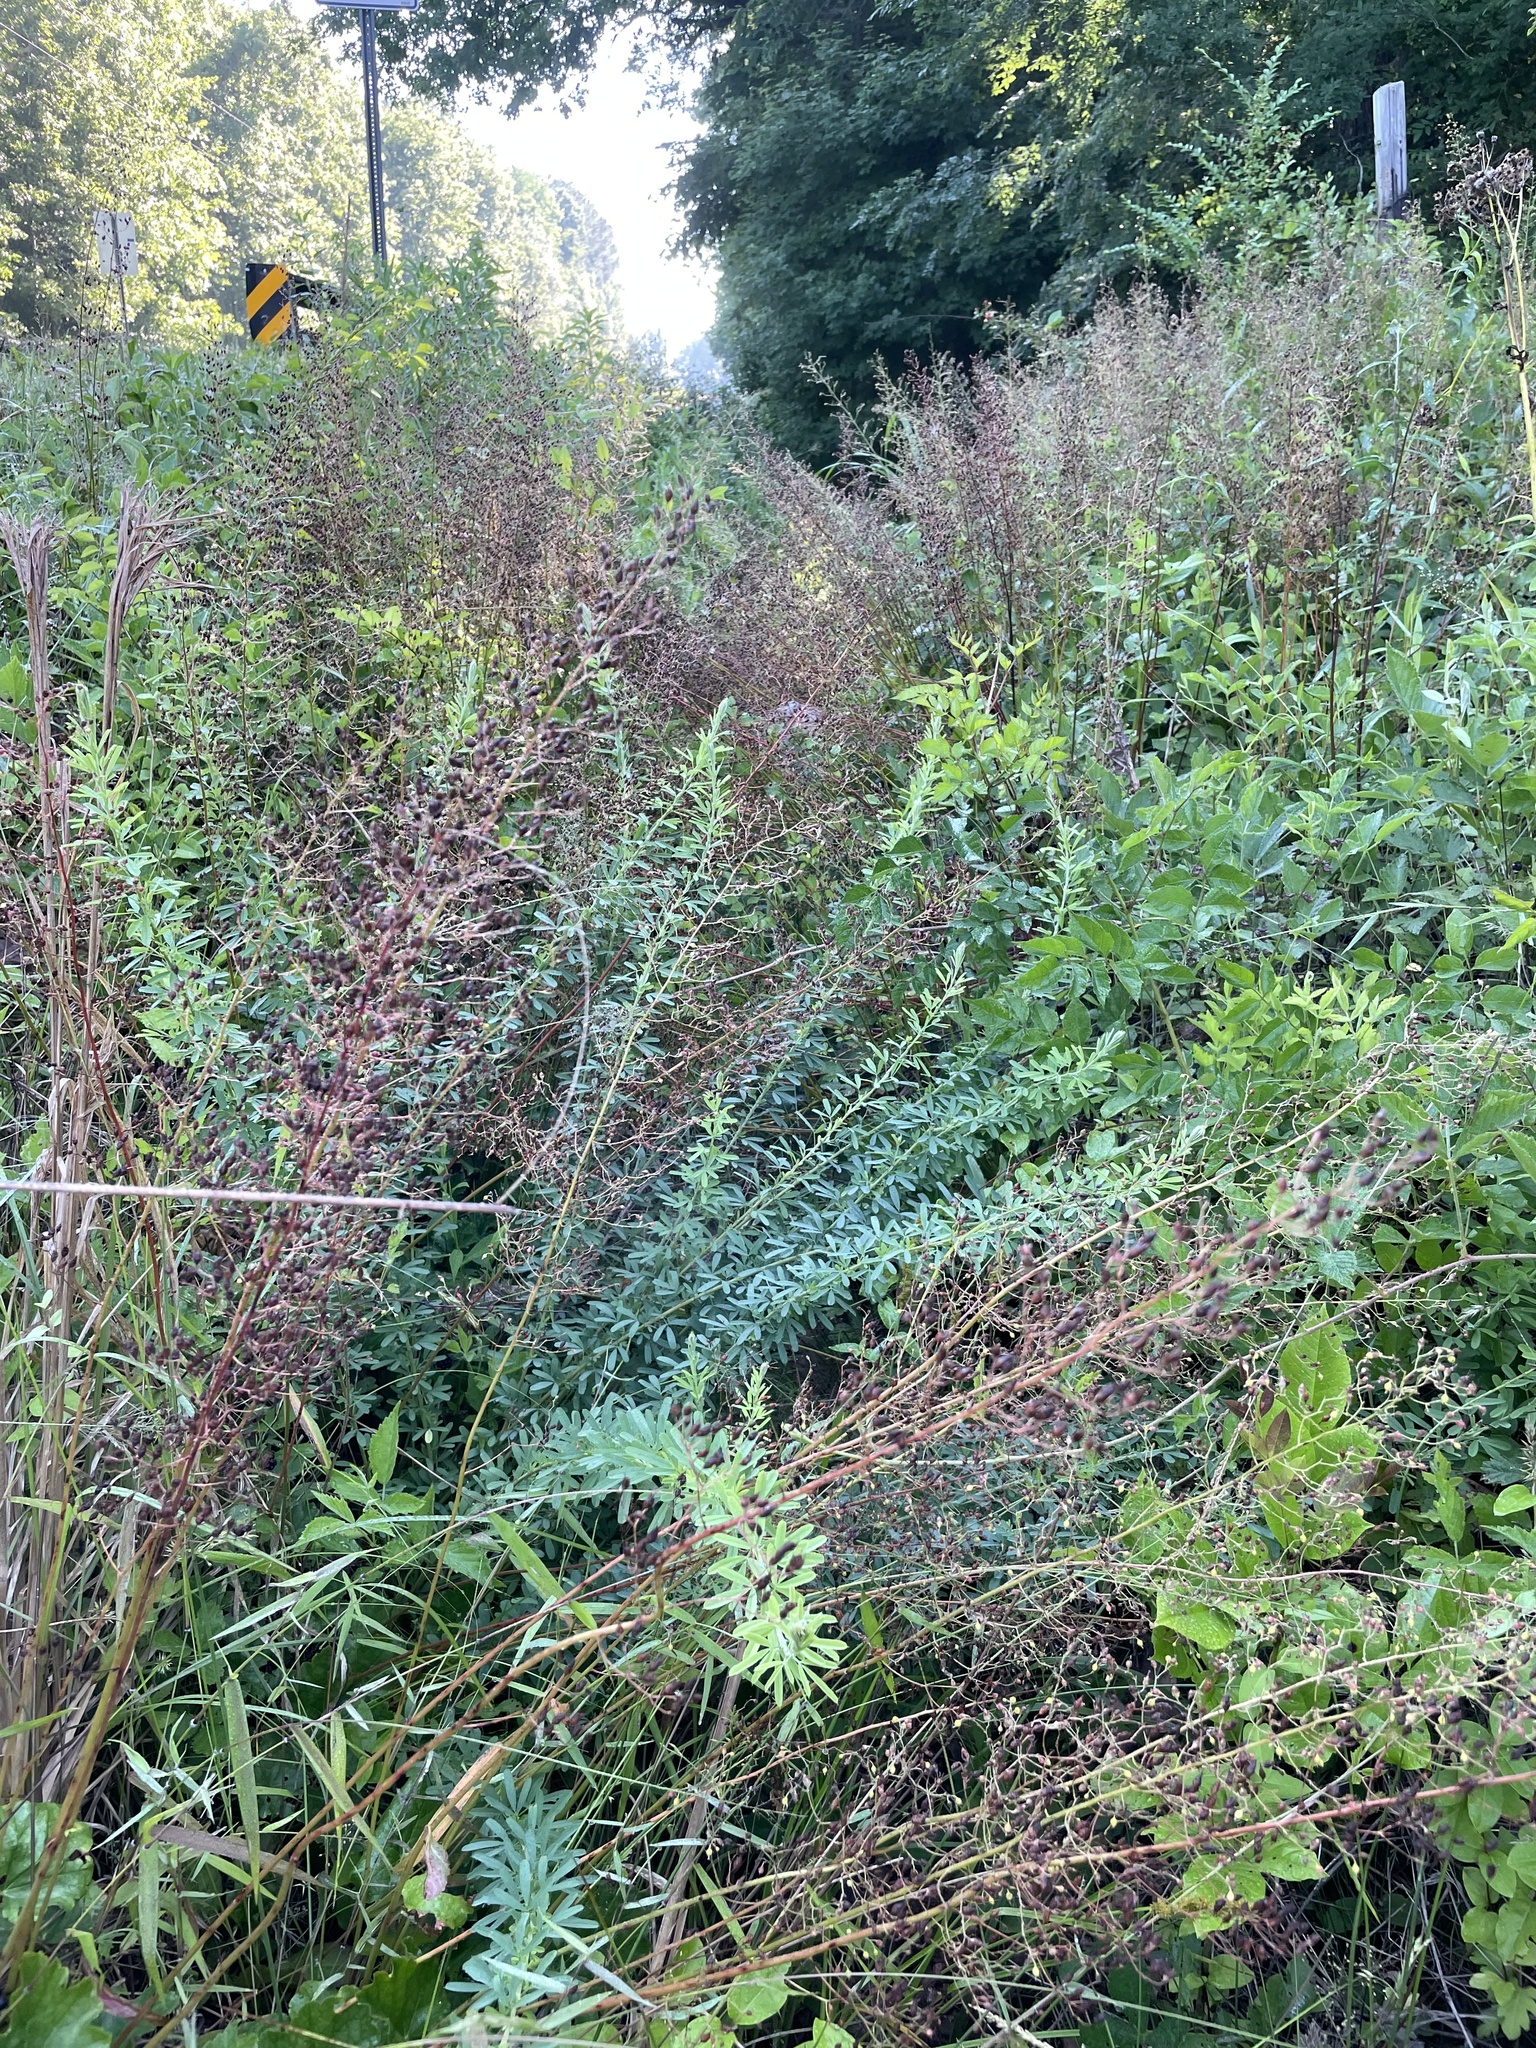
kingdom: Plantae
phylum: Tracheophyta
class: Magnoliopsida
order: Saxifragales
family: Saxifragaceae
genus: Heuchera
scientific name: Heuchera caroliniana
